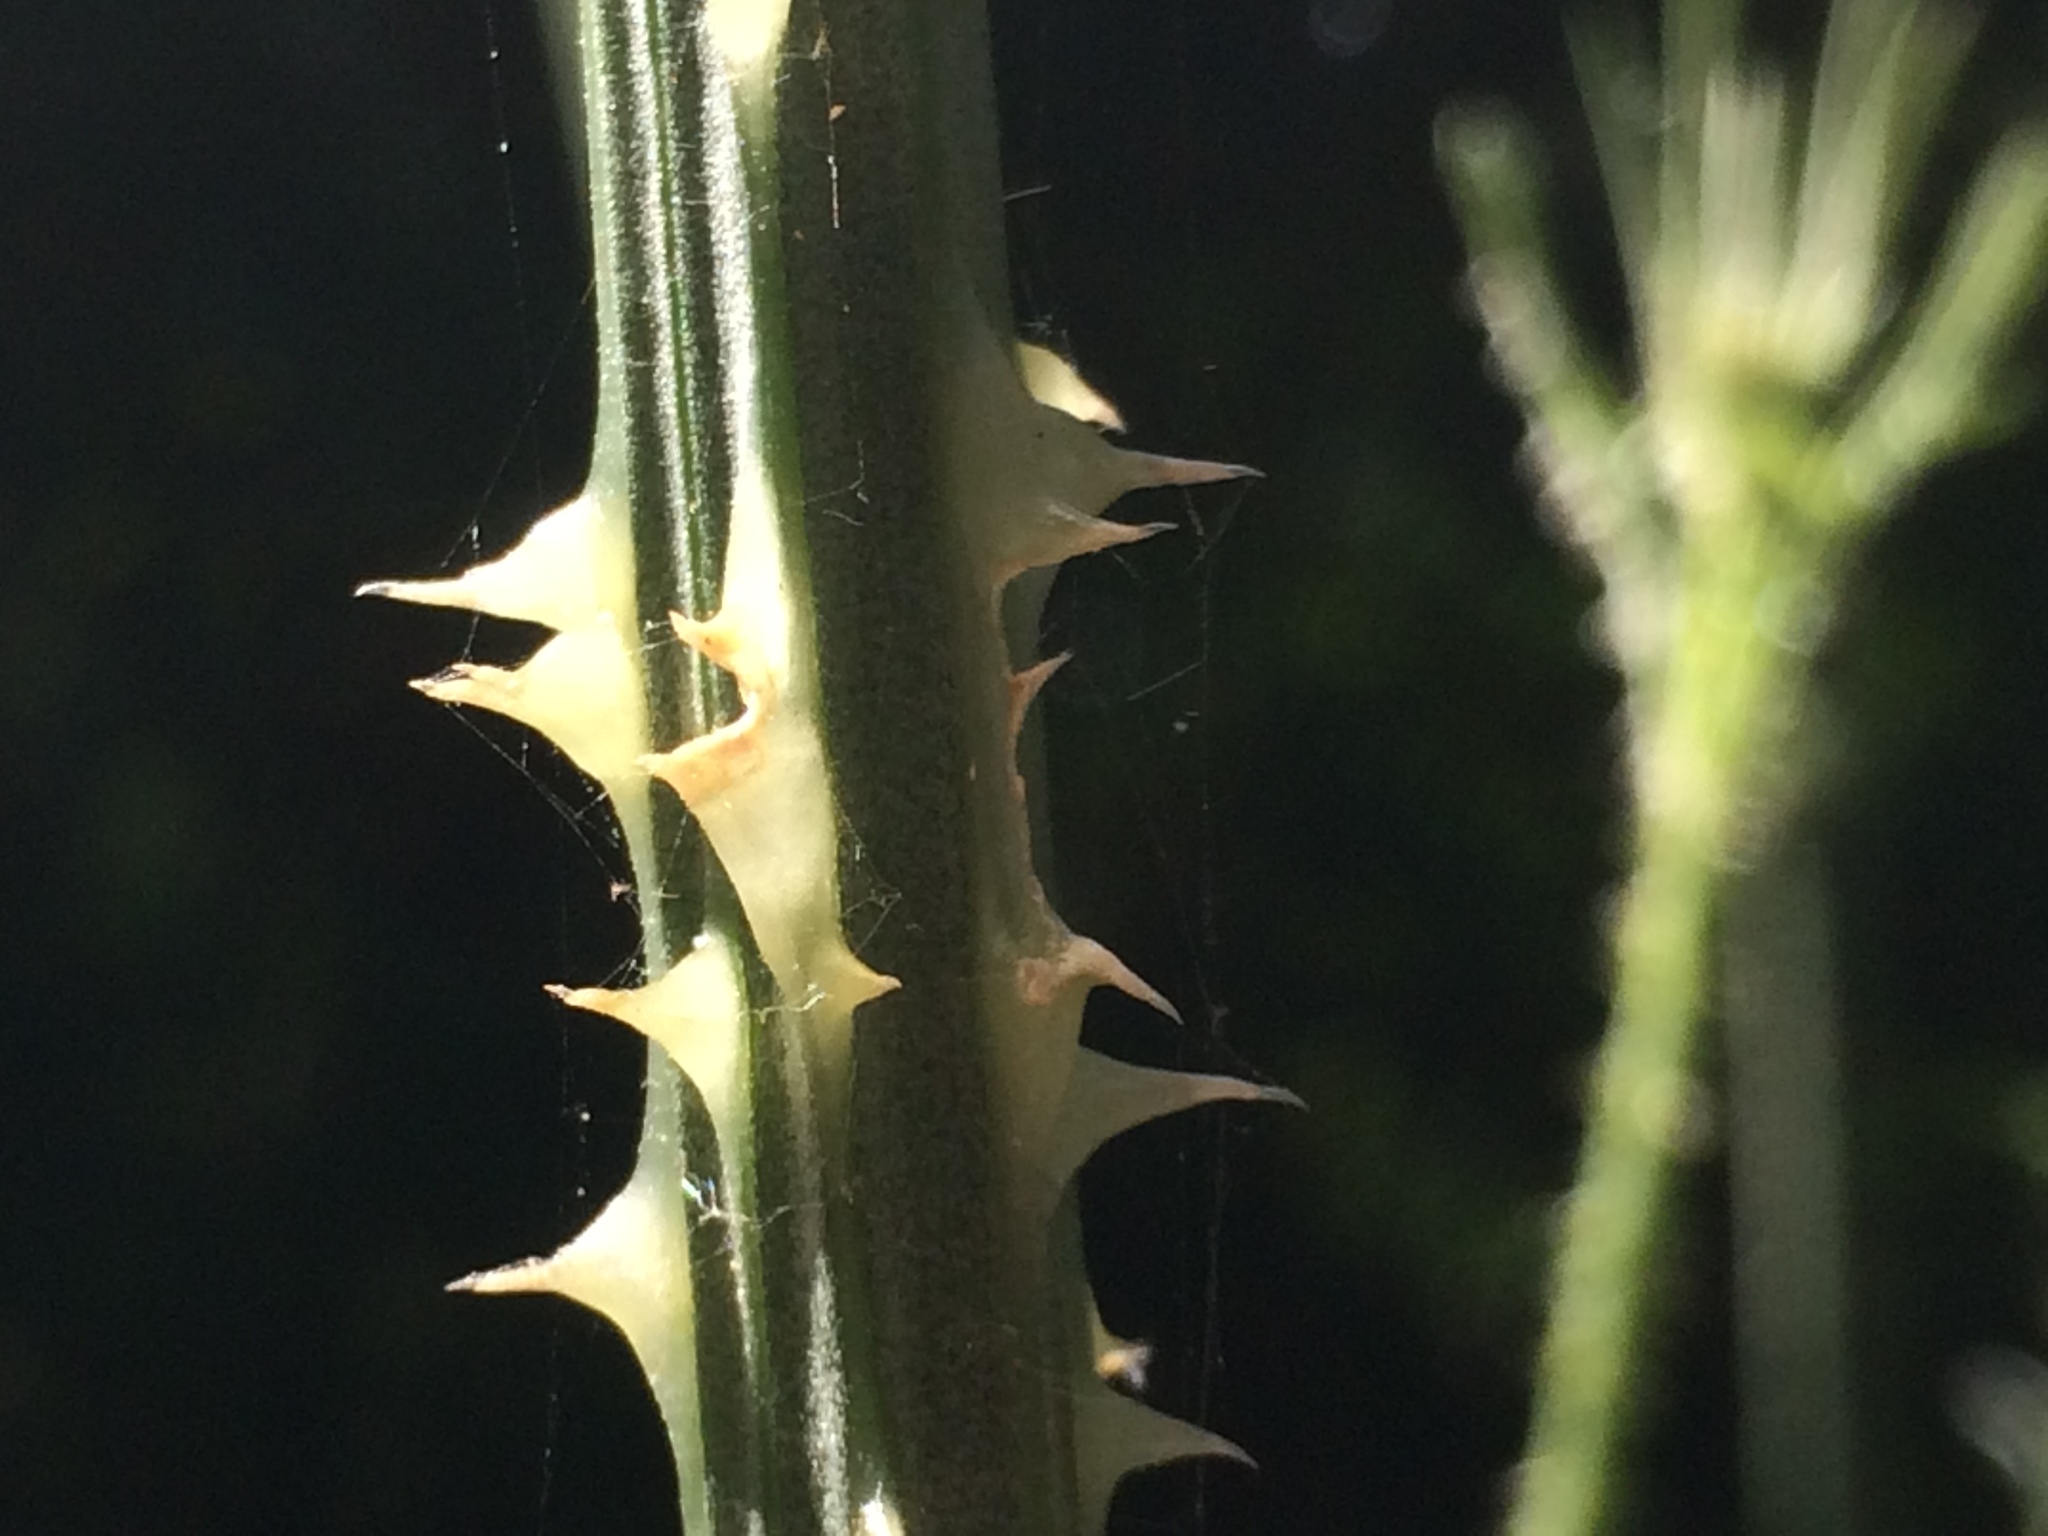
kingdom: Plantae
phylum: Tracheophyta
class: Magnoliopsida
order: Dipsacales
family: Caprifoliaceae
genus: Dipsacus
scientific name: Dipsacus comosus
